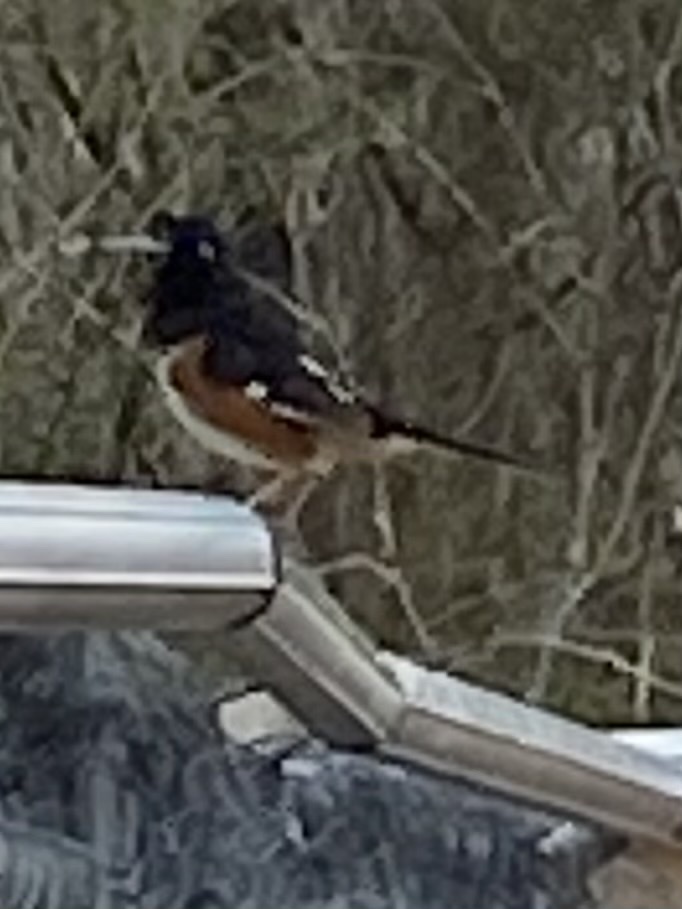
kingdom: Animalia
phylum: Chordata
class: Aves
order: Passeriformes
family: Passerellidae
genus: Pipilo
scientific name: Pipilo erythrophthalmus
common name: Eastern towhee
